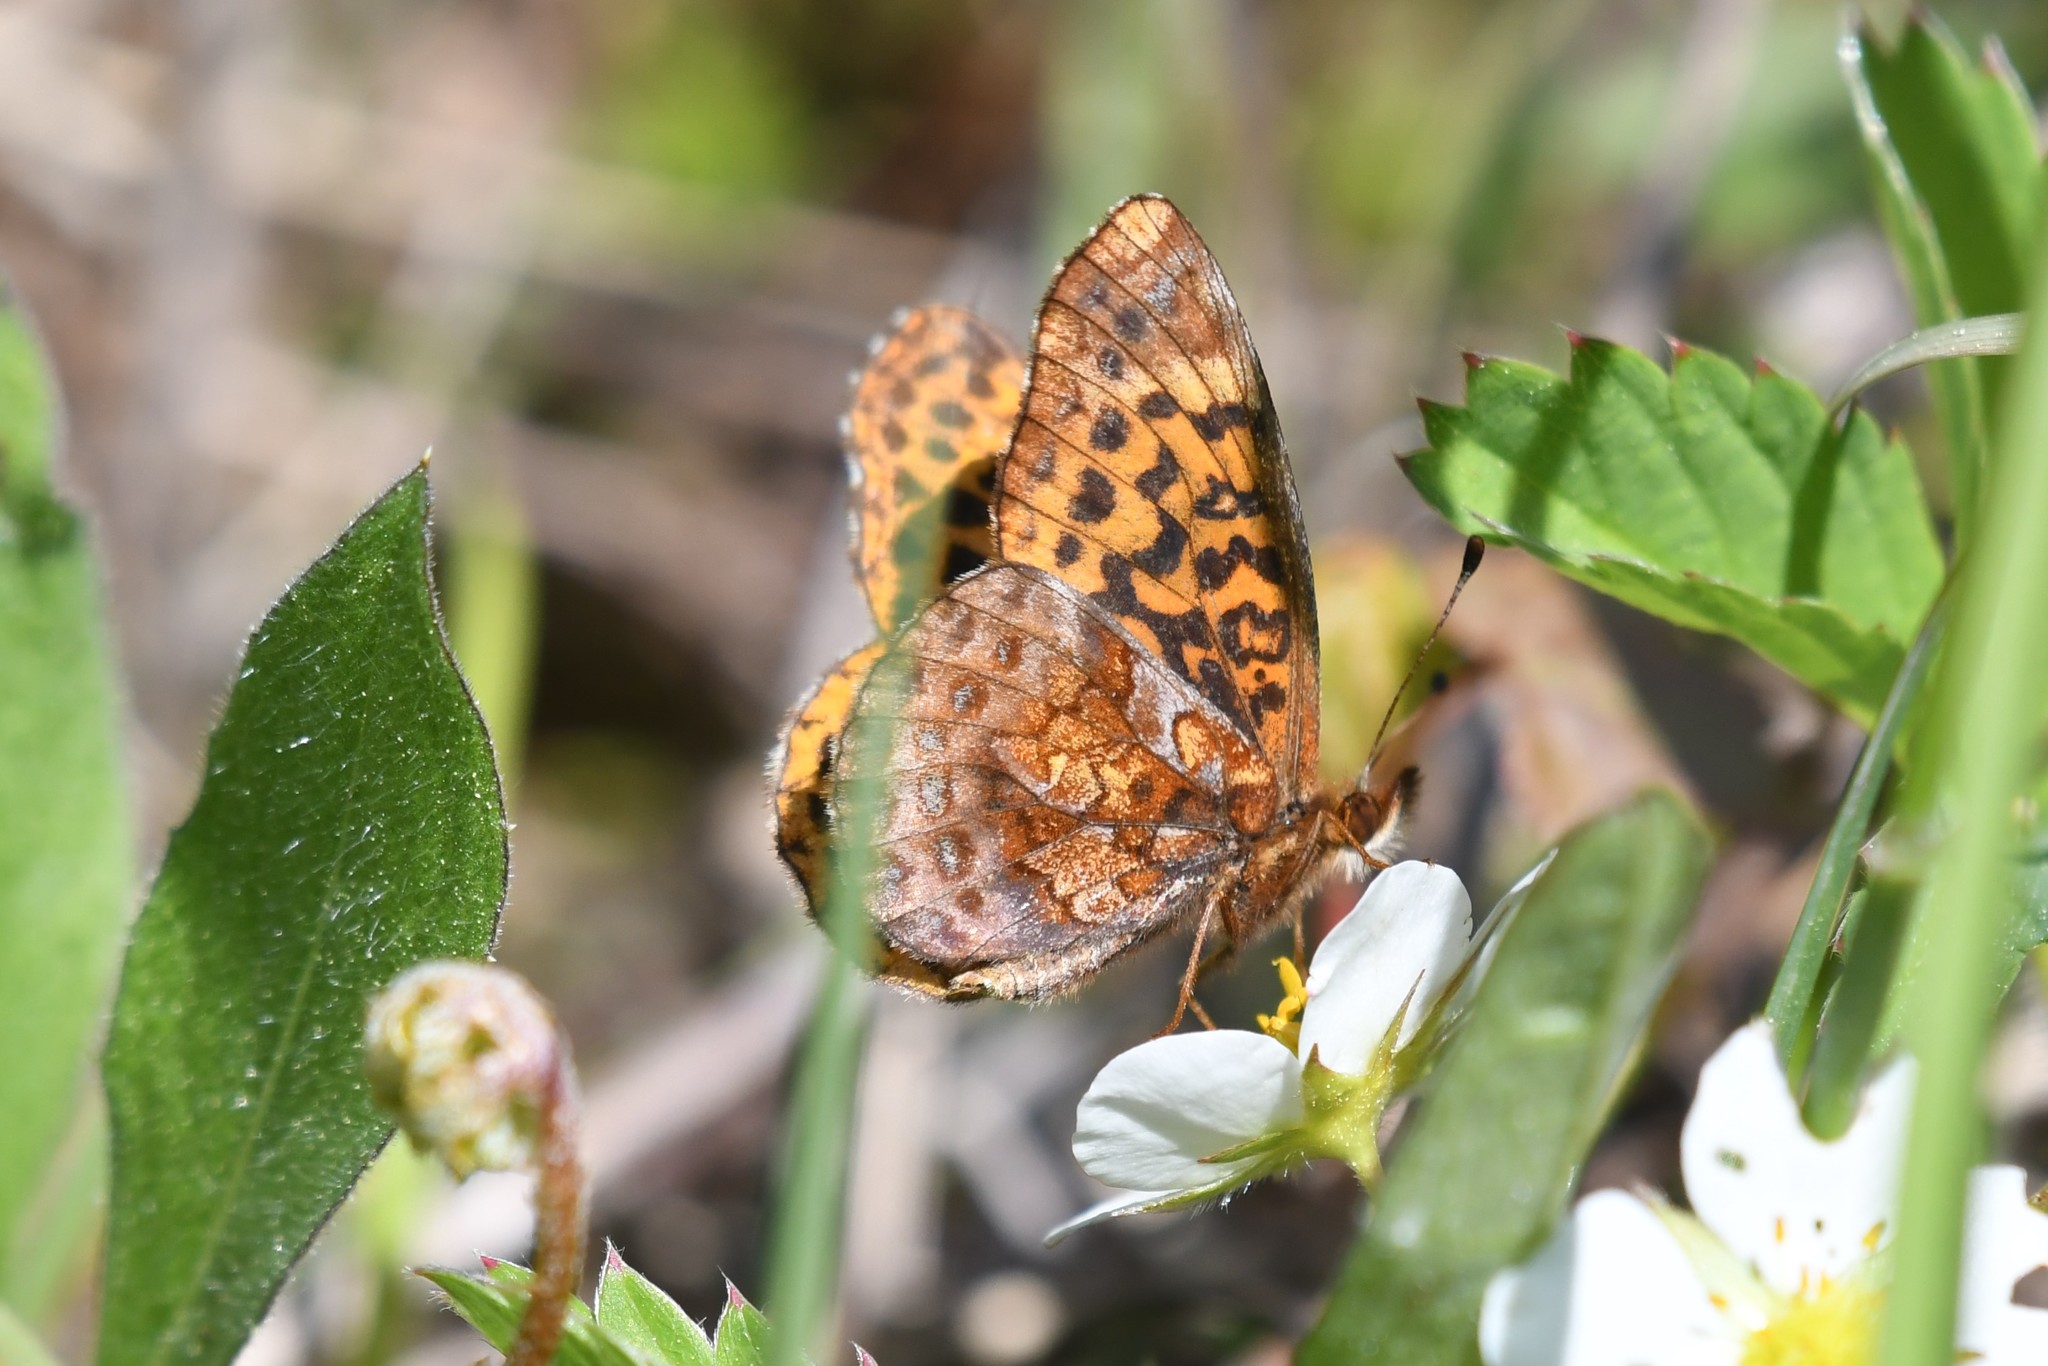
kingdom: Animalia
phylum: Arthropoda
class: Insecta
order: Lepidoptera
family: Nymphalidae
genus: Clossiana
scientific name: Clossiana toddi
